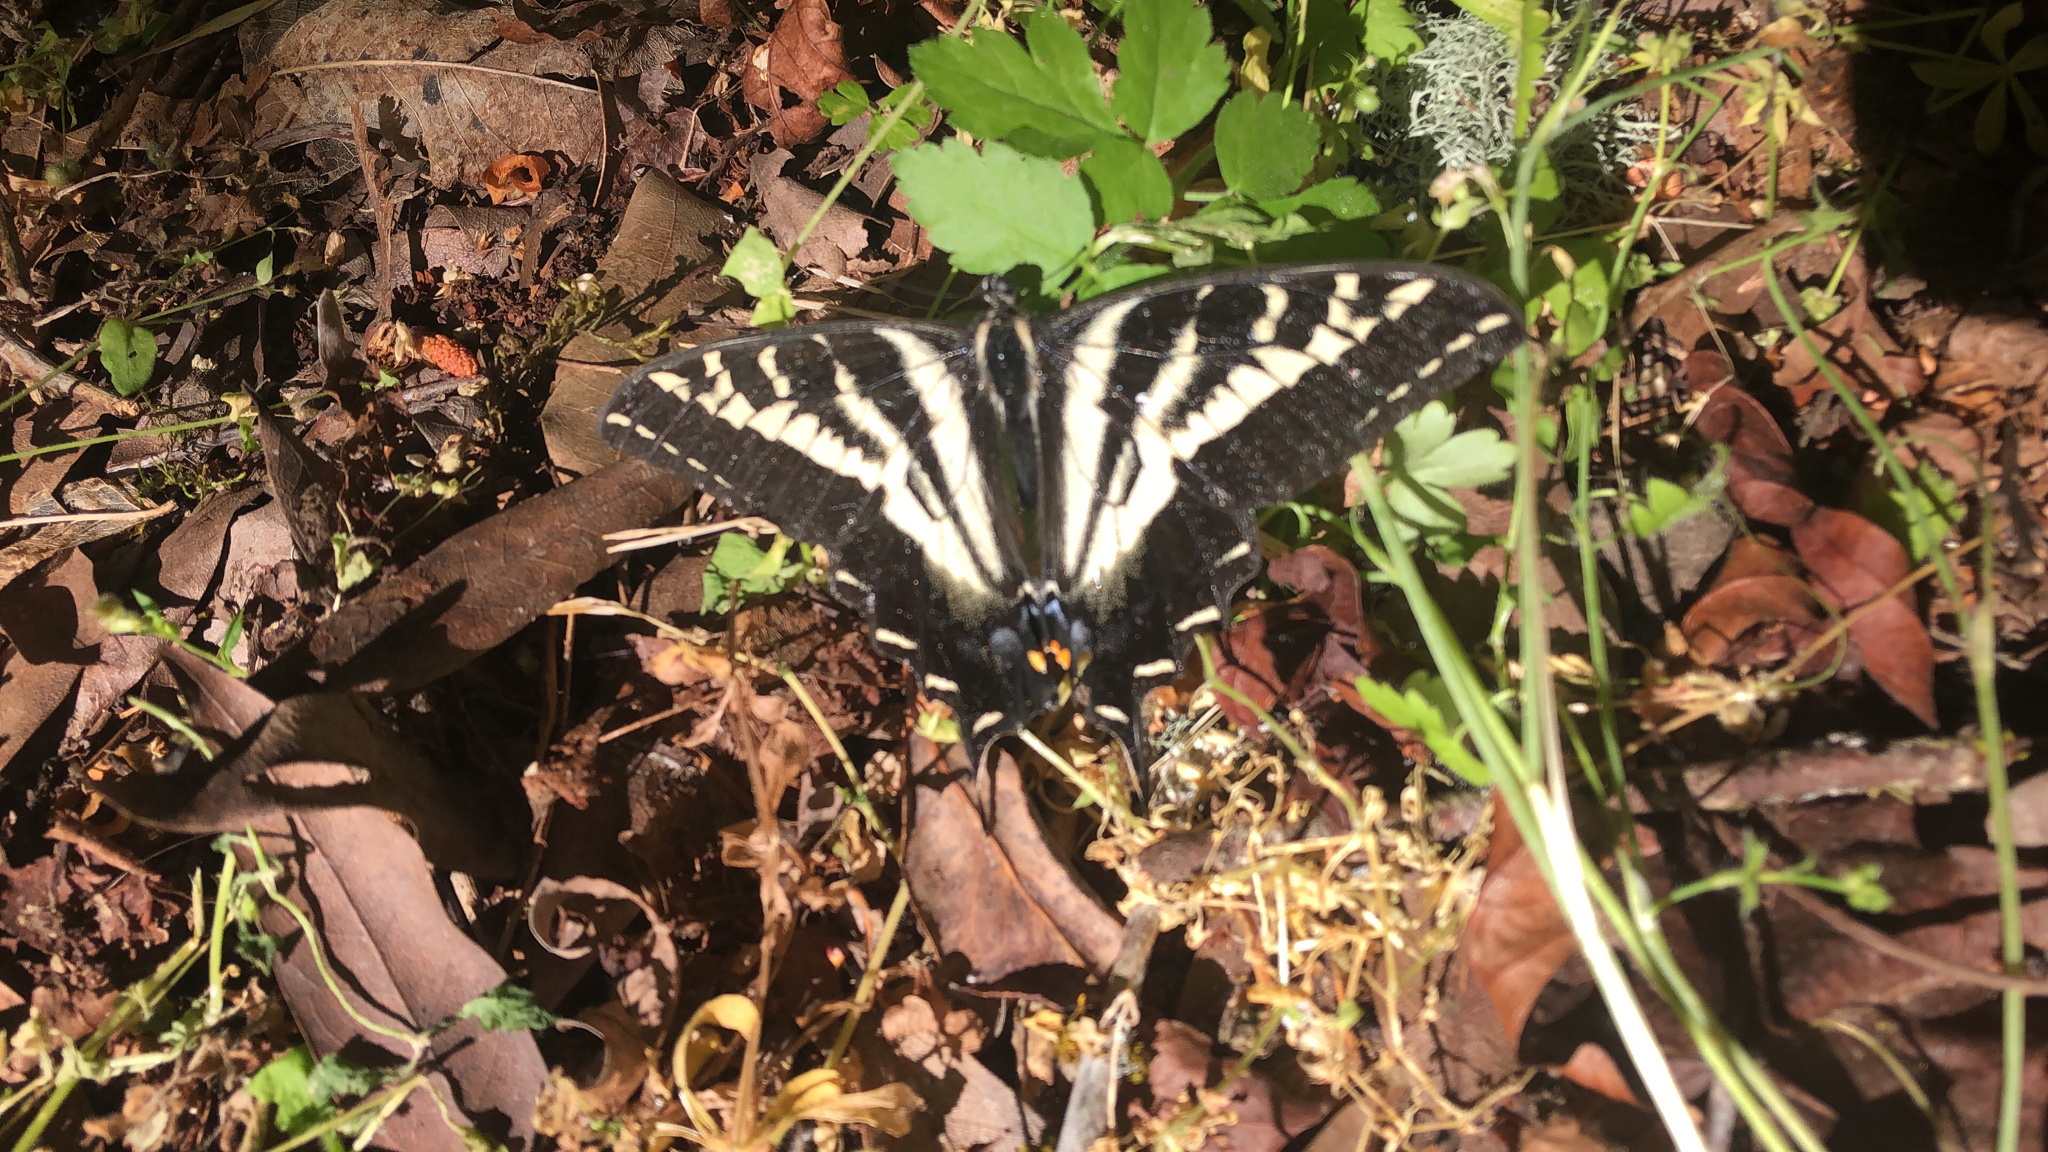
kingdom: Animalia
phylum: Arthropoda
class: Insecta
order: Lepidoptera
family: Papilionidae
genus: Papilio
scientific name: Papilio eurymedon
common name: Pale tiger swallowtail
